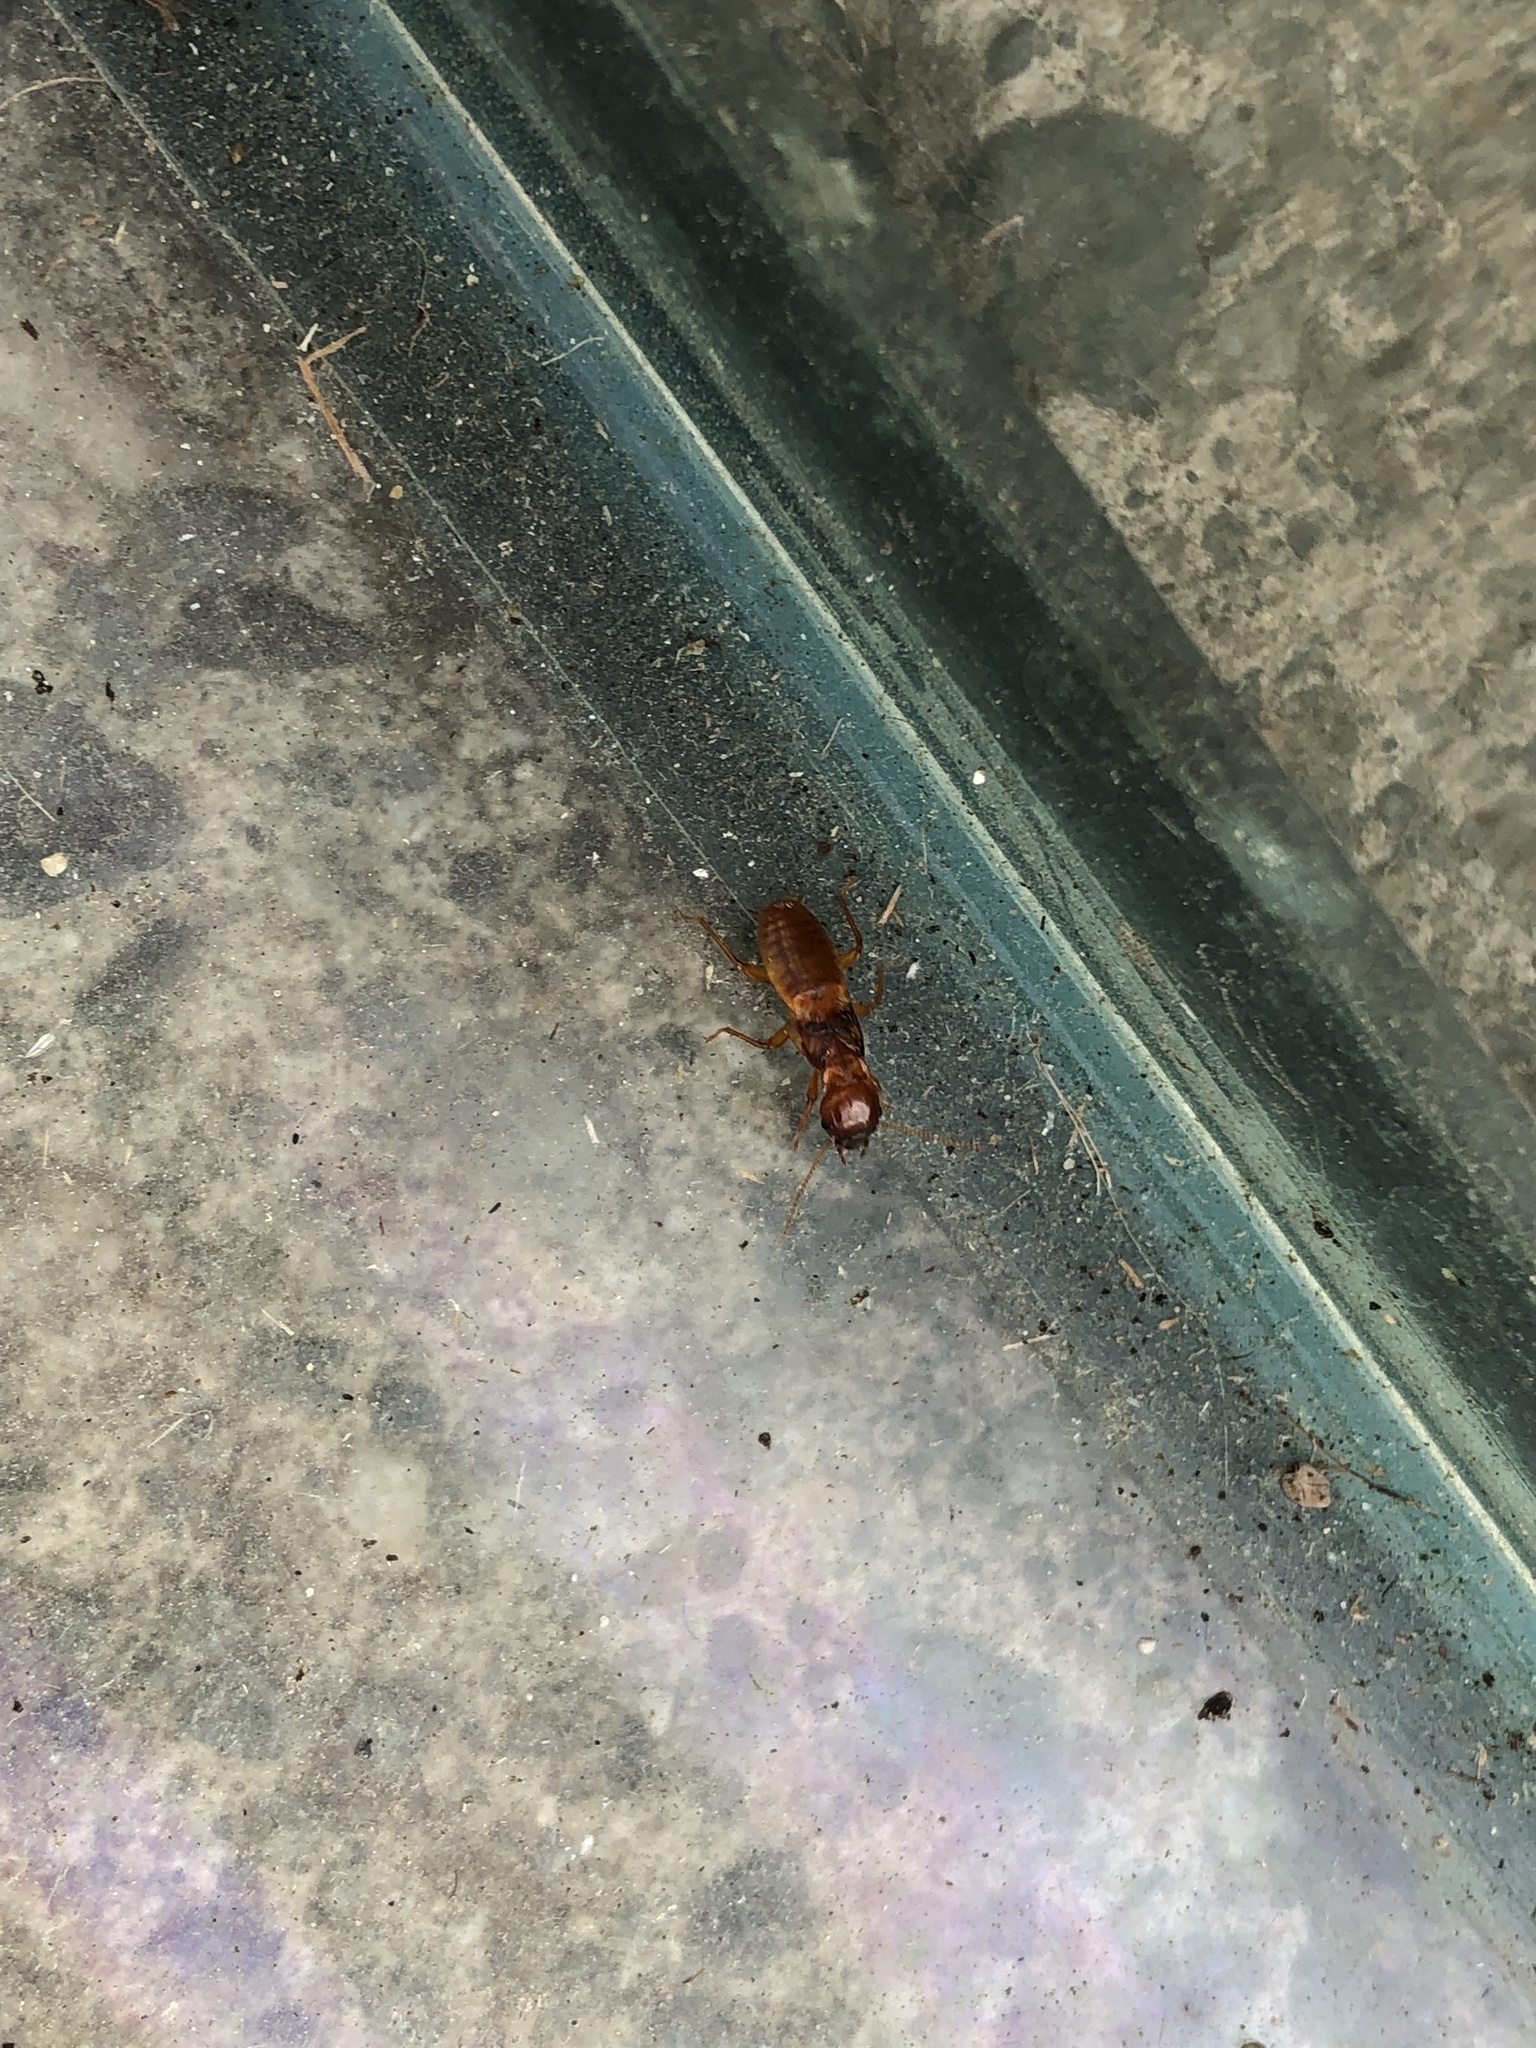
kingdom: Animalia
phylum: Arthropoda
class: Insecta
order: Blattodea
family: Archotermopsidae
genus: Zootermopsis
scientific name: Zootermopsis angusticollis
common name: Rottenwood termite
